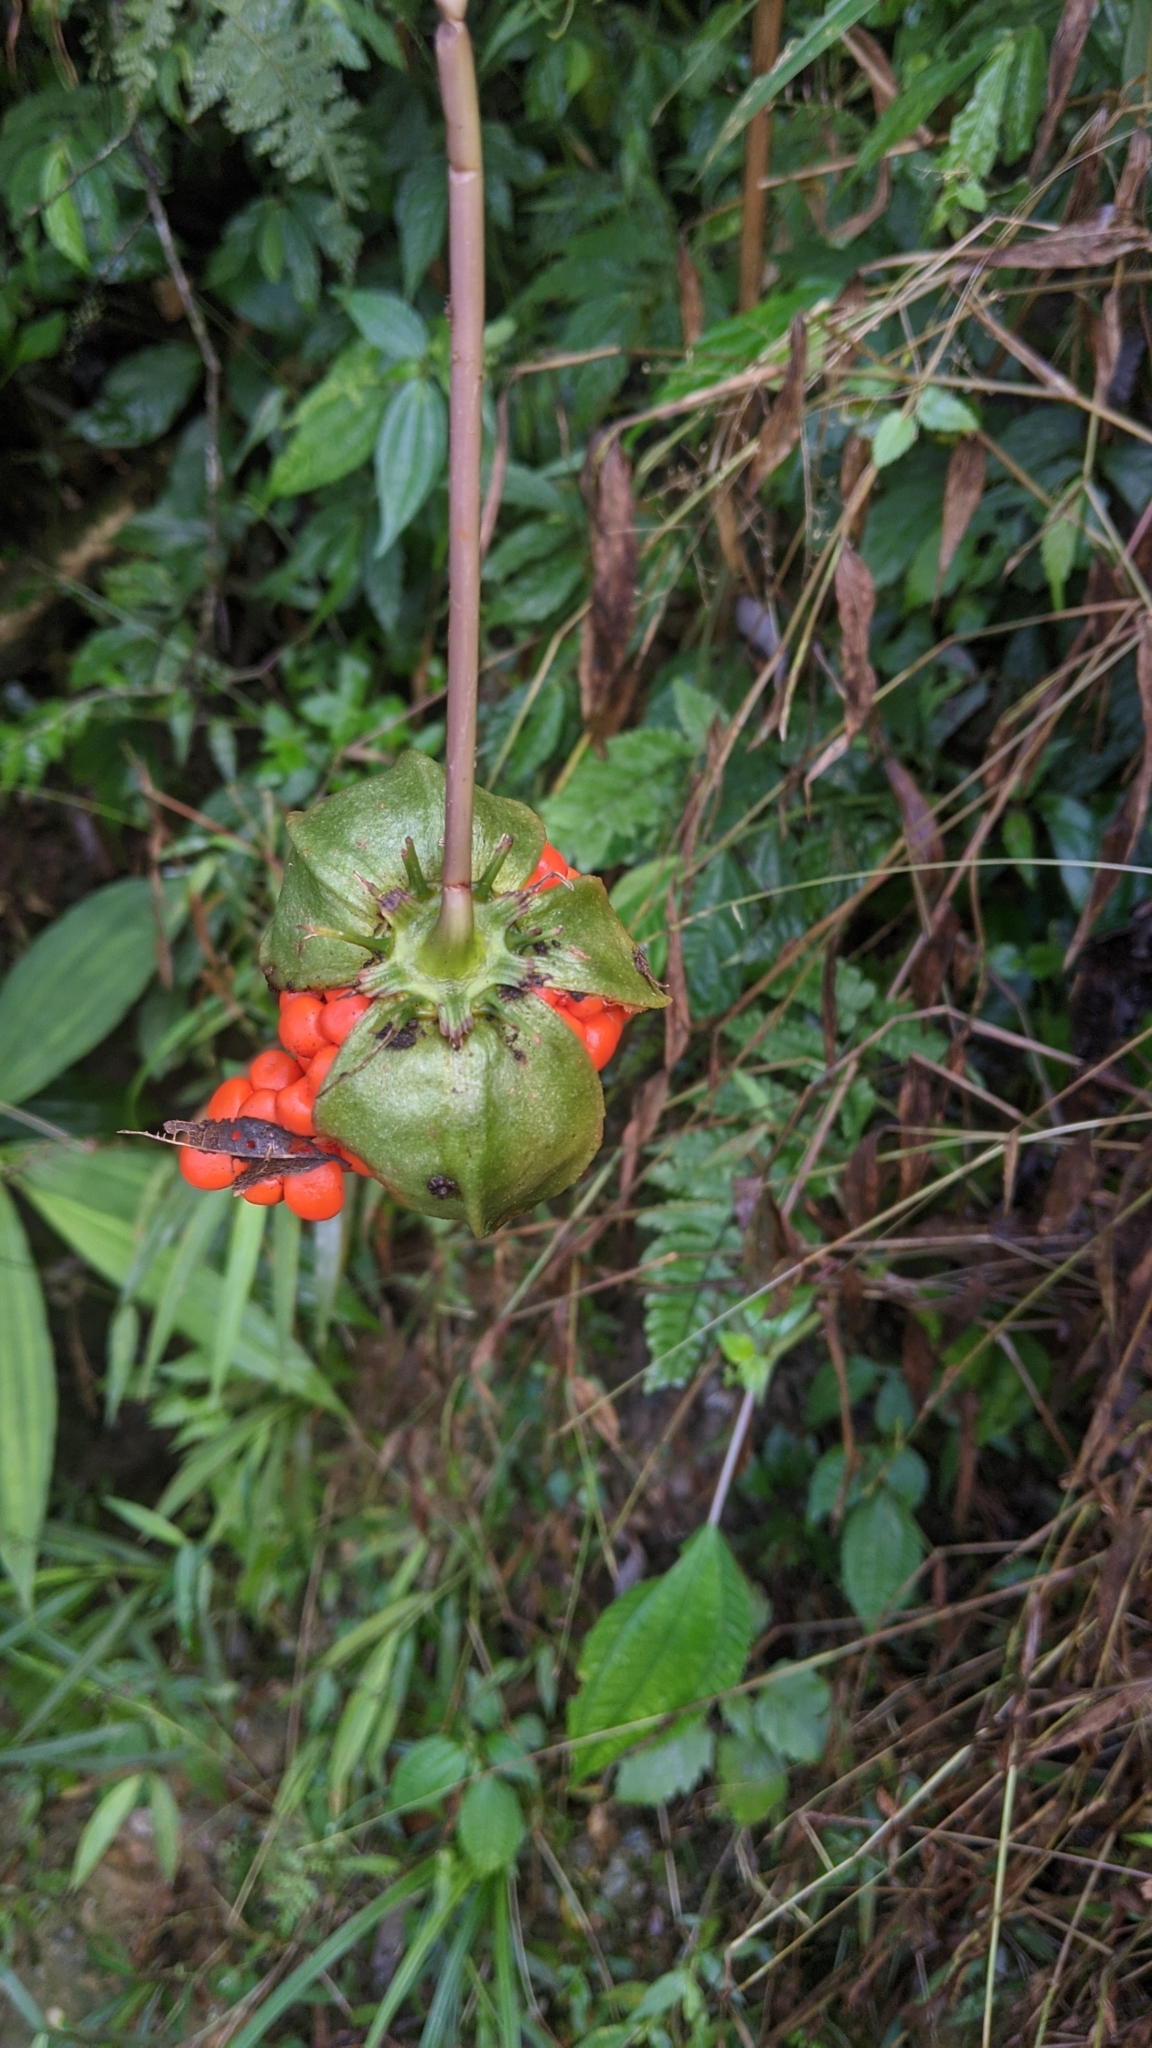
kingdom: Plantae
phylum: Tracheophyta
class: Liliopsida
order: Liliales
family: Melanthiaceae
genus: Paris
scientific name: Paris polyphylla
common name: Love apple
